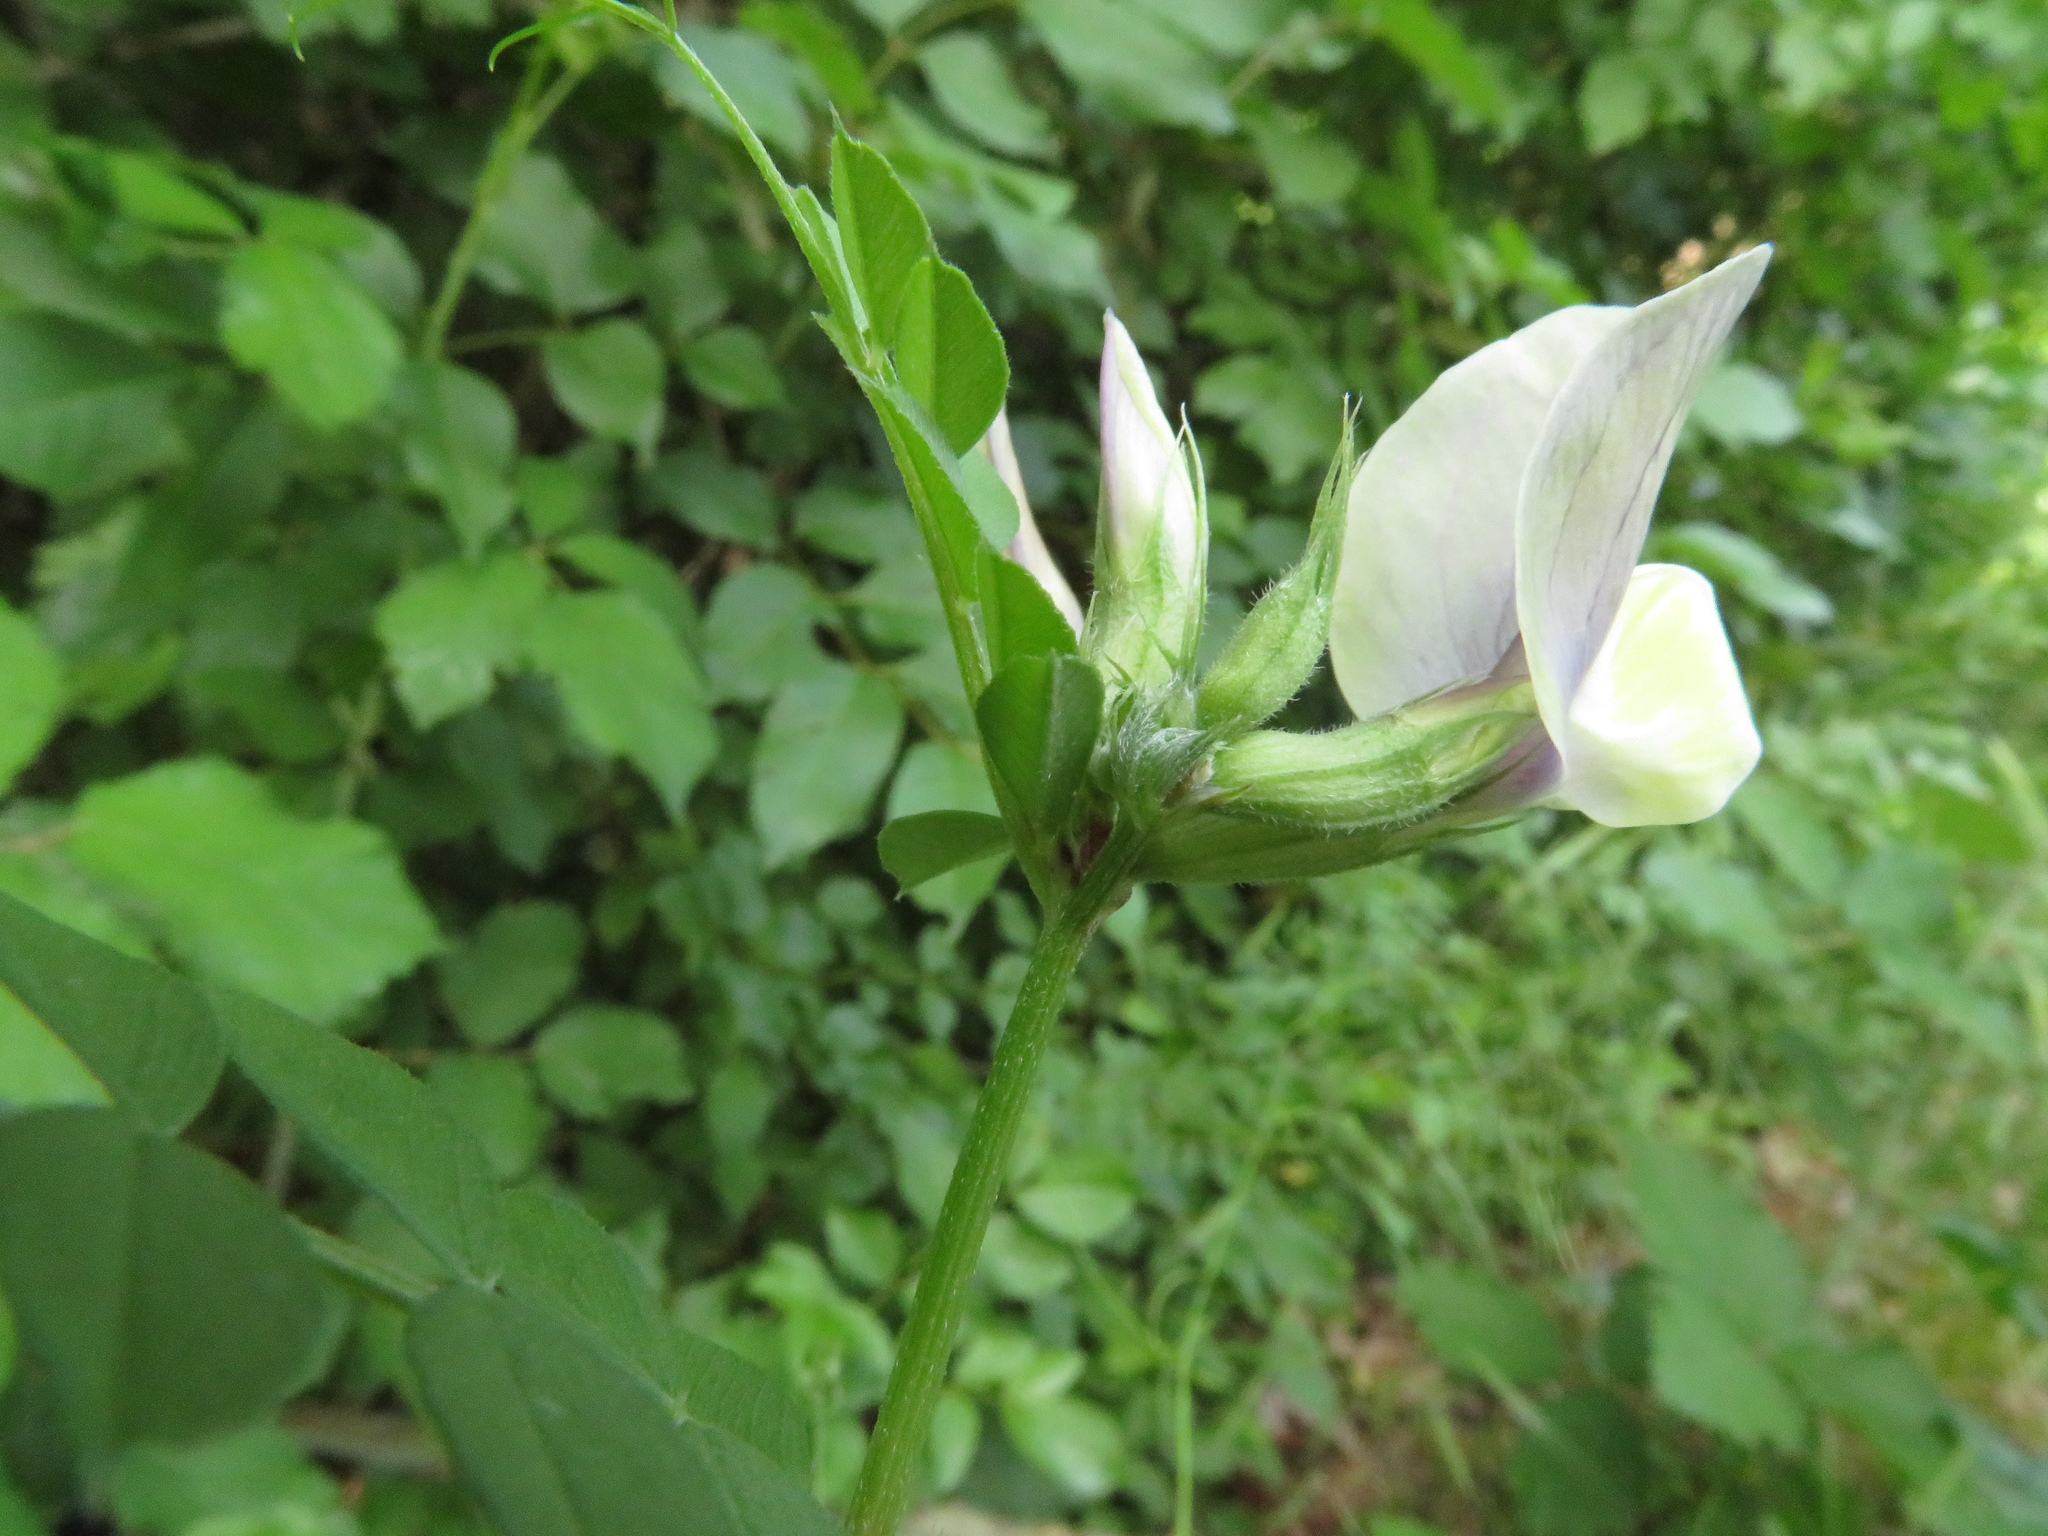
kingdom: Plantae
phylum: Tracheophyta
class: Magnoliopsida
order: Fabales
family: Fabaceae
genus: Vicia
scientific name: Vicia grandiflora
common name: Large yellow vetch
